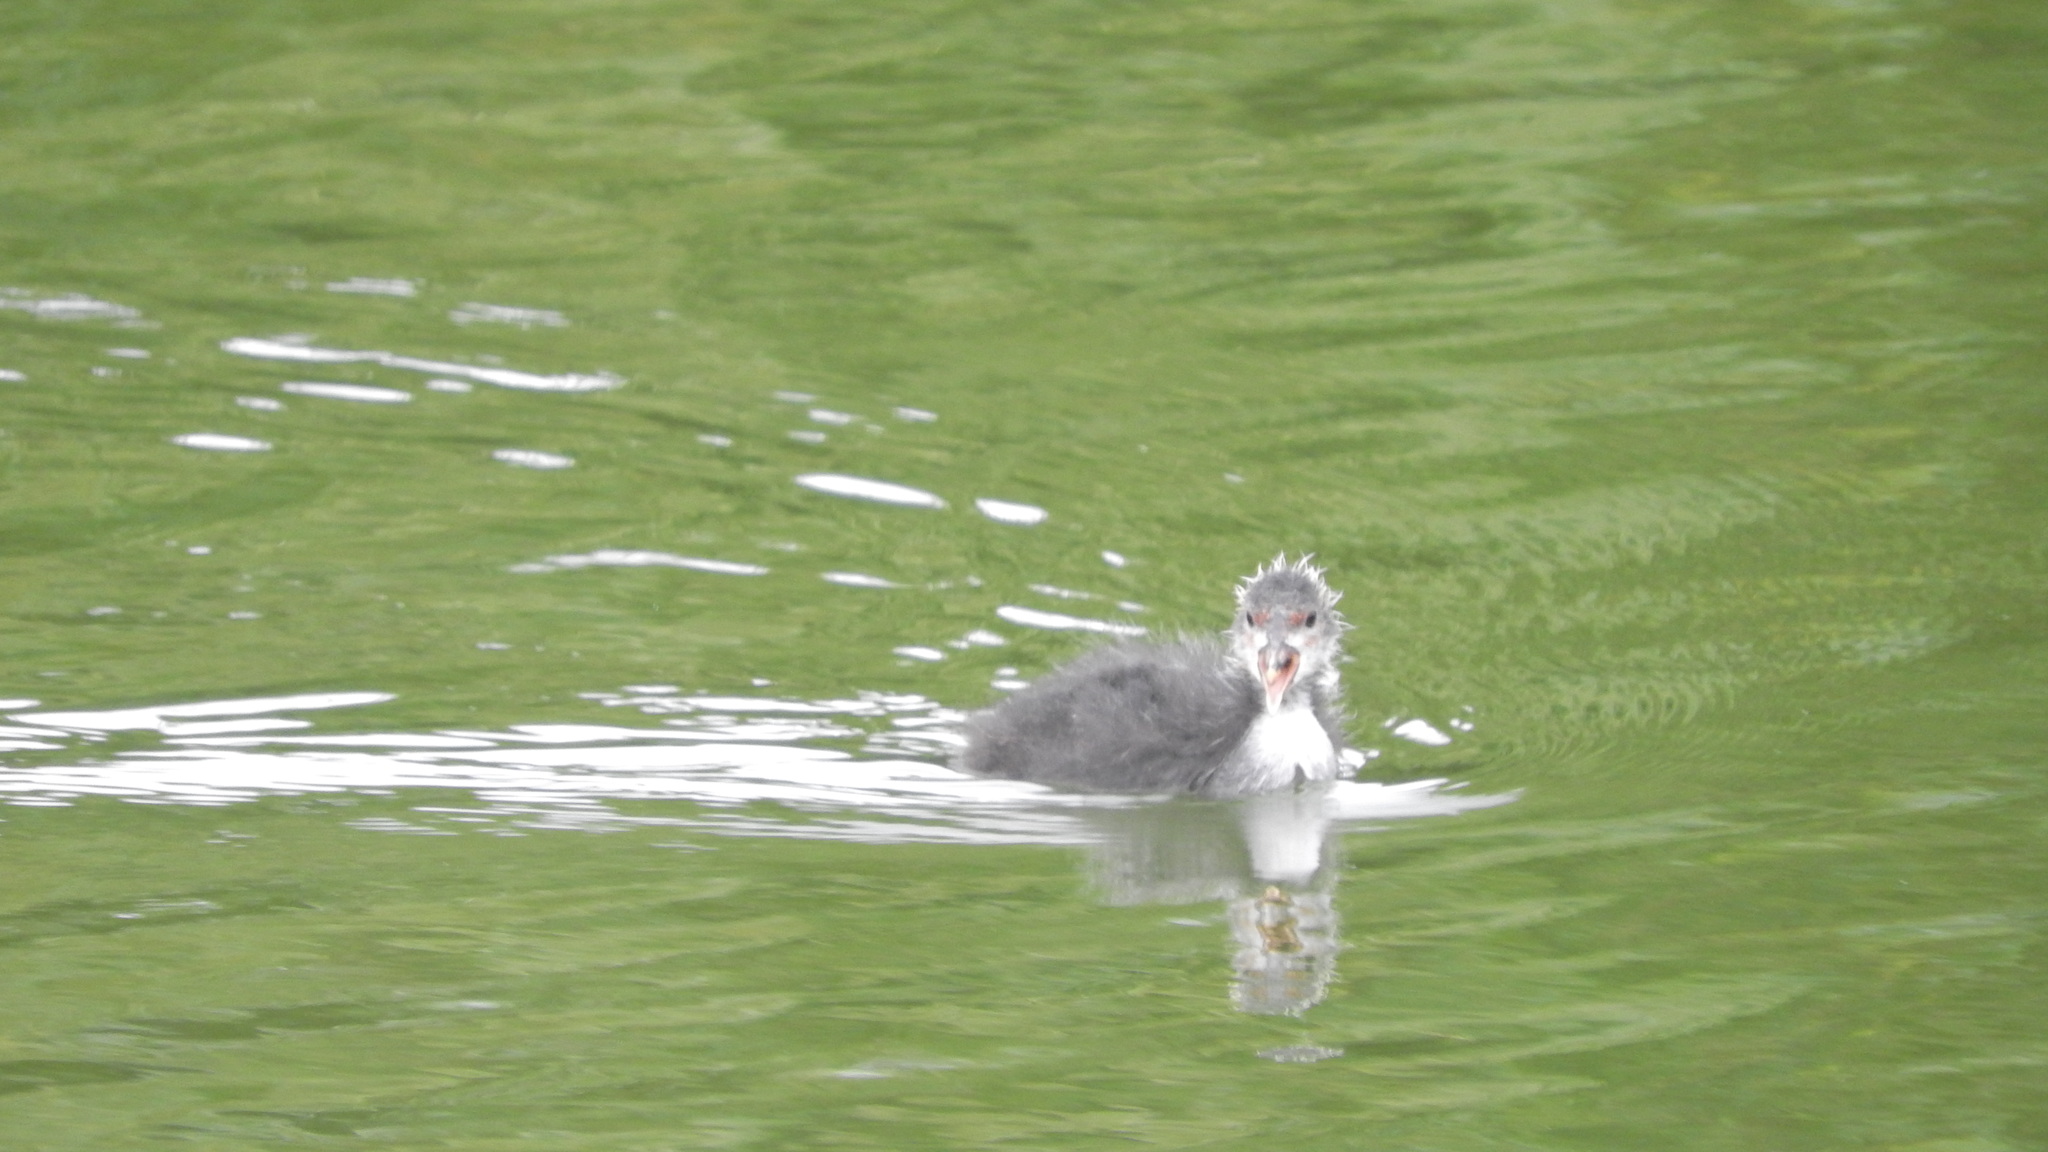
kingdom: Animalia
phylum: Chordata
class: Aves
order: Gruiformes
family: Rallidae
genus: Fulica
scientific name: Fulica atra
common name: Eurasian coot
